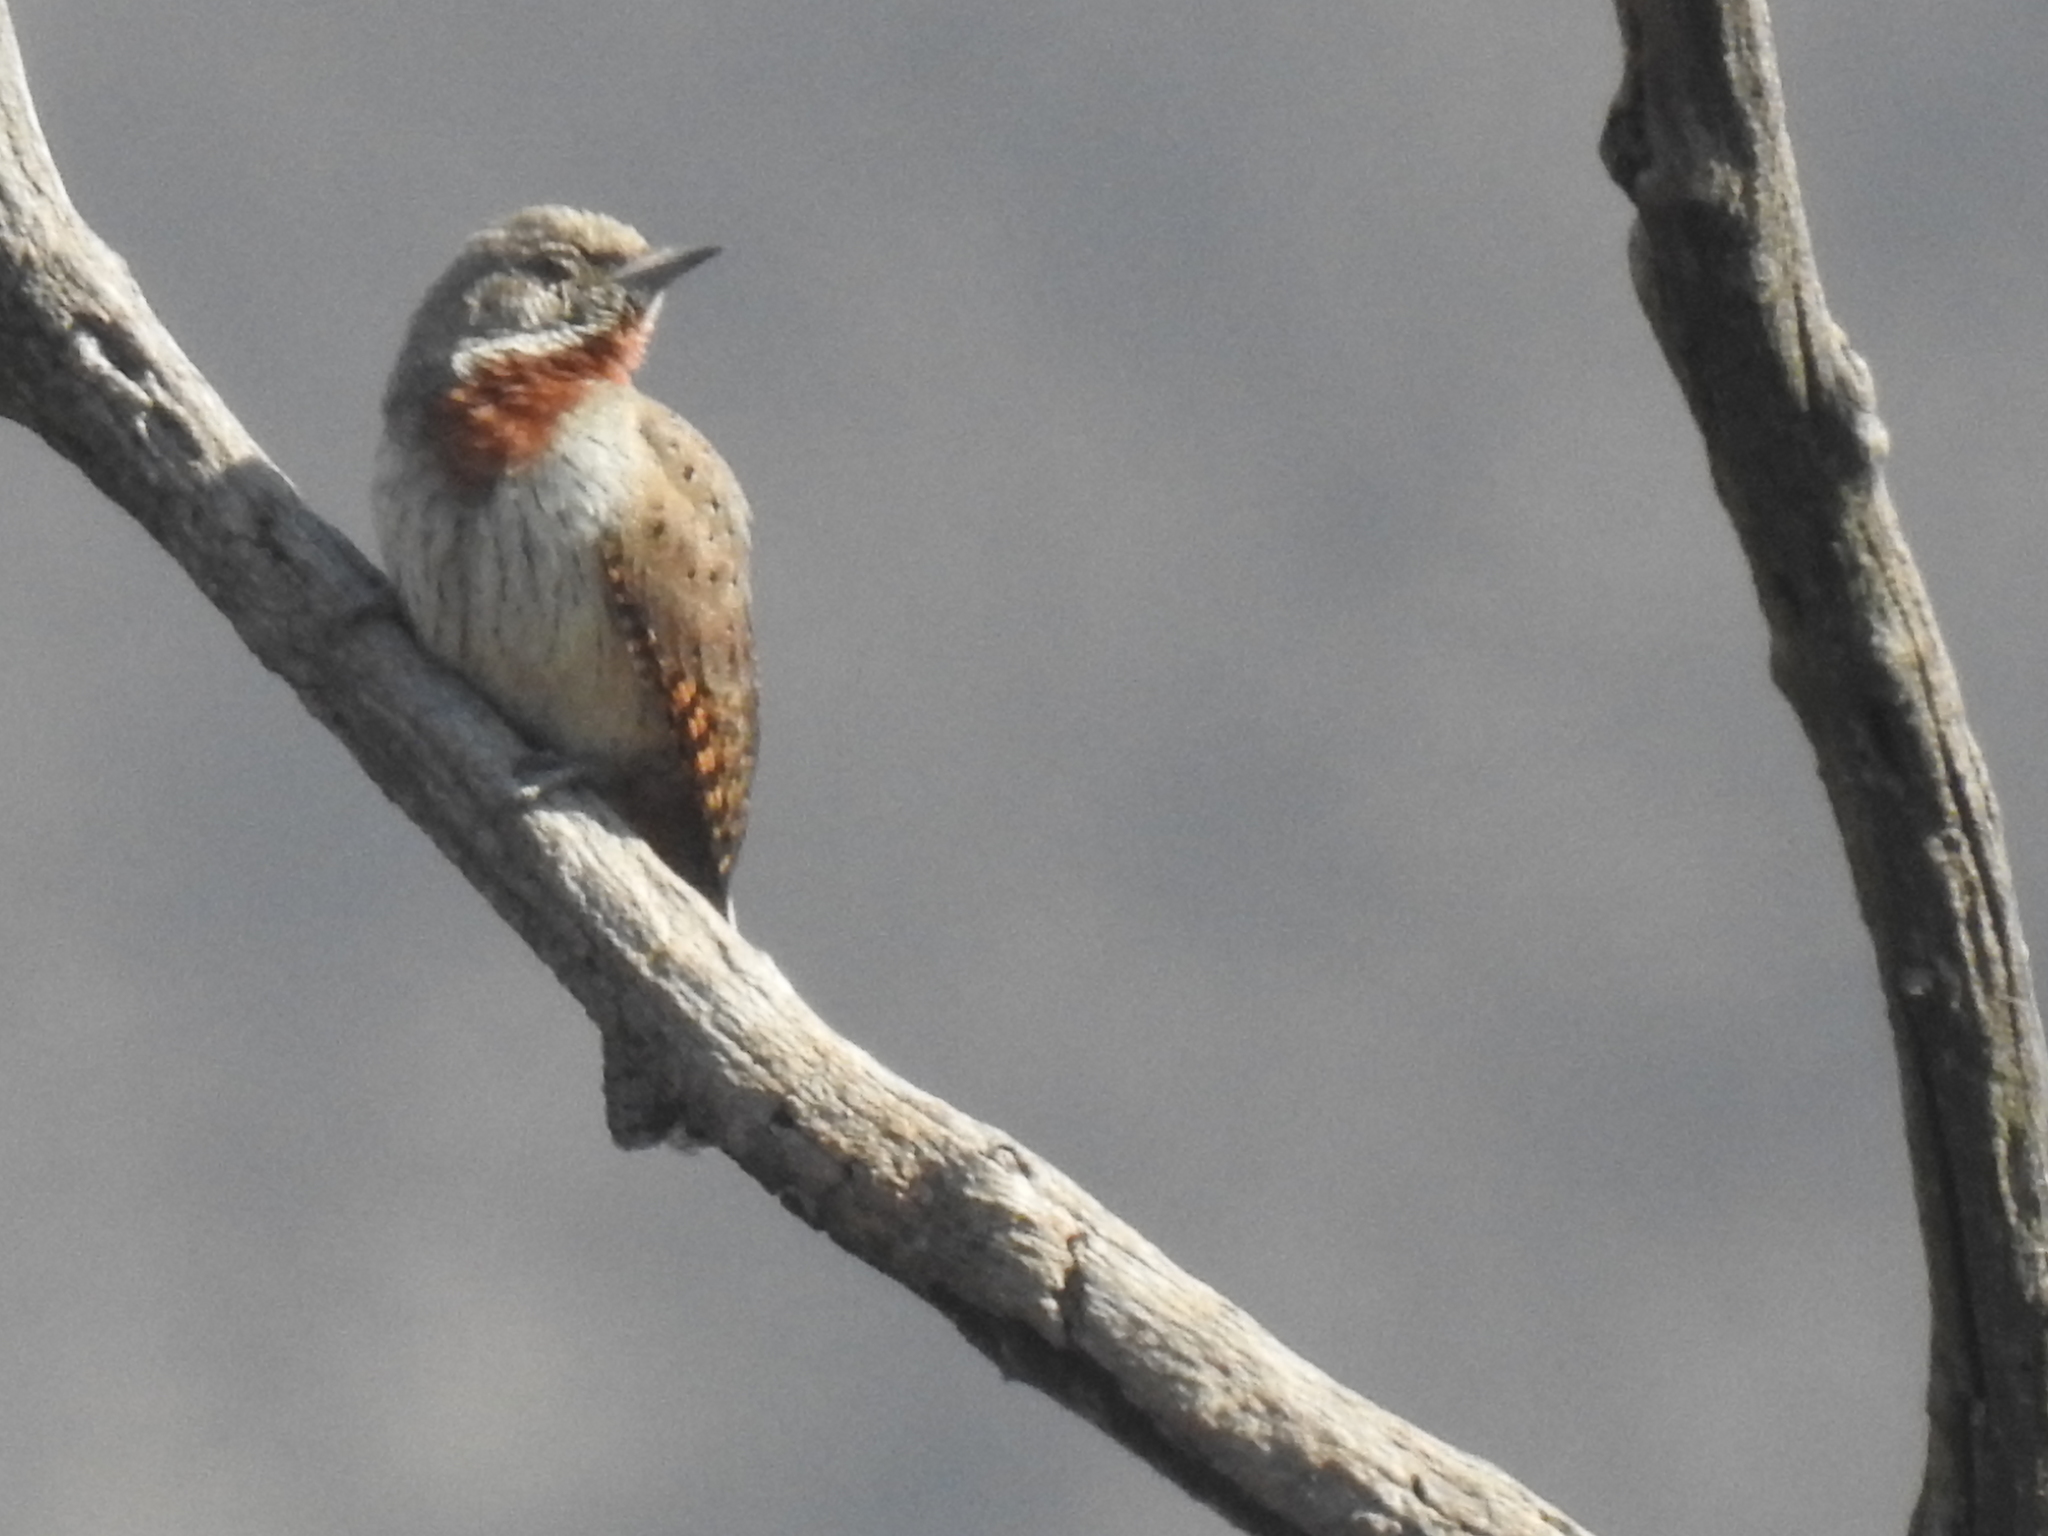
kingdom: Animalia
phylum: Chordata
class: Aves
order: Piciformes
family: Picidae
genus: Jynx
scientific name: Jynx ruficollis
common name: Red-throated wryneck
